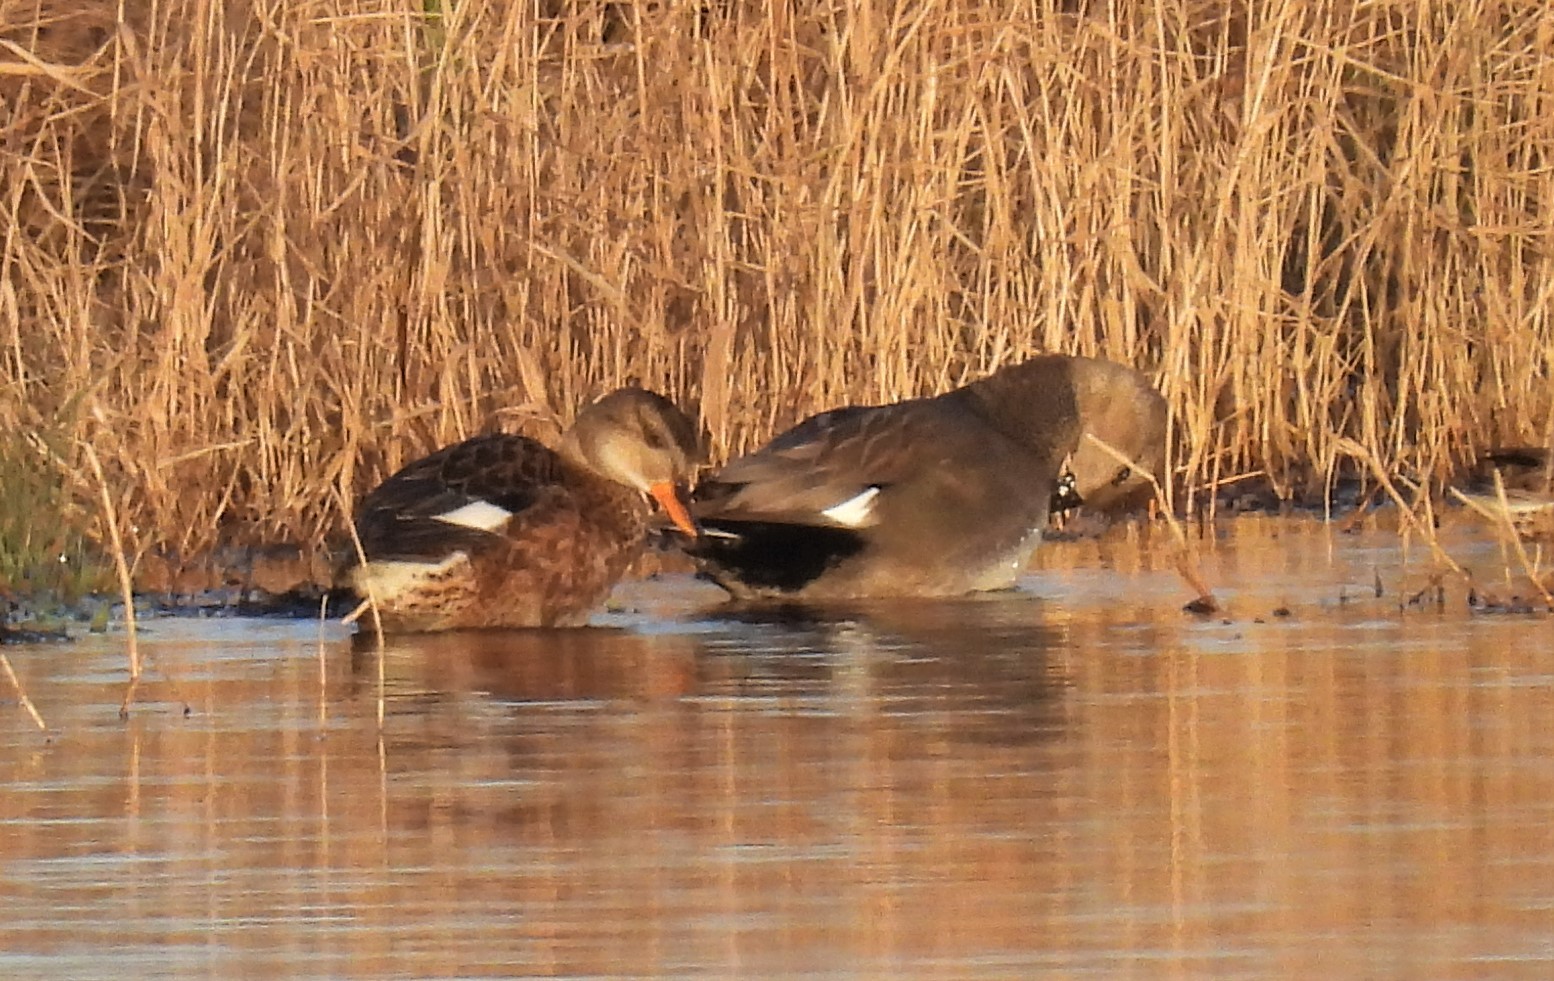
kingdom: Animalia
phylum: Chordata
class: Aves
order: Anseriformes
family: Anatidae
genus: Mareca
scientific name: Mareca strepera
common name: Gadwall
